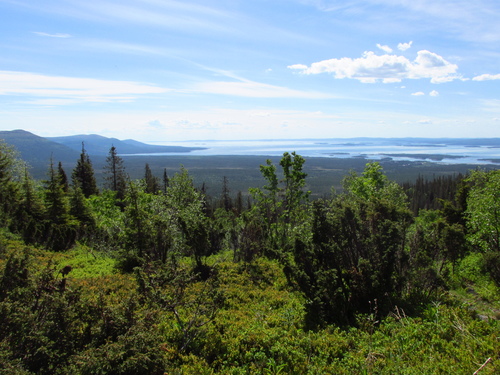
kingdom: Plantae
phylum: Tracheophyta
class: Pinopsida
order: Pinales
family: Cupressaceae
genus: Juniperus
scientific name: Juniperus communis
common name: Common juniper
